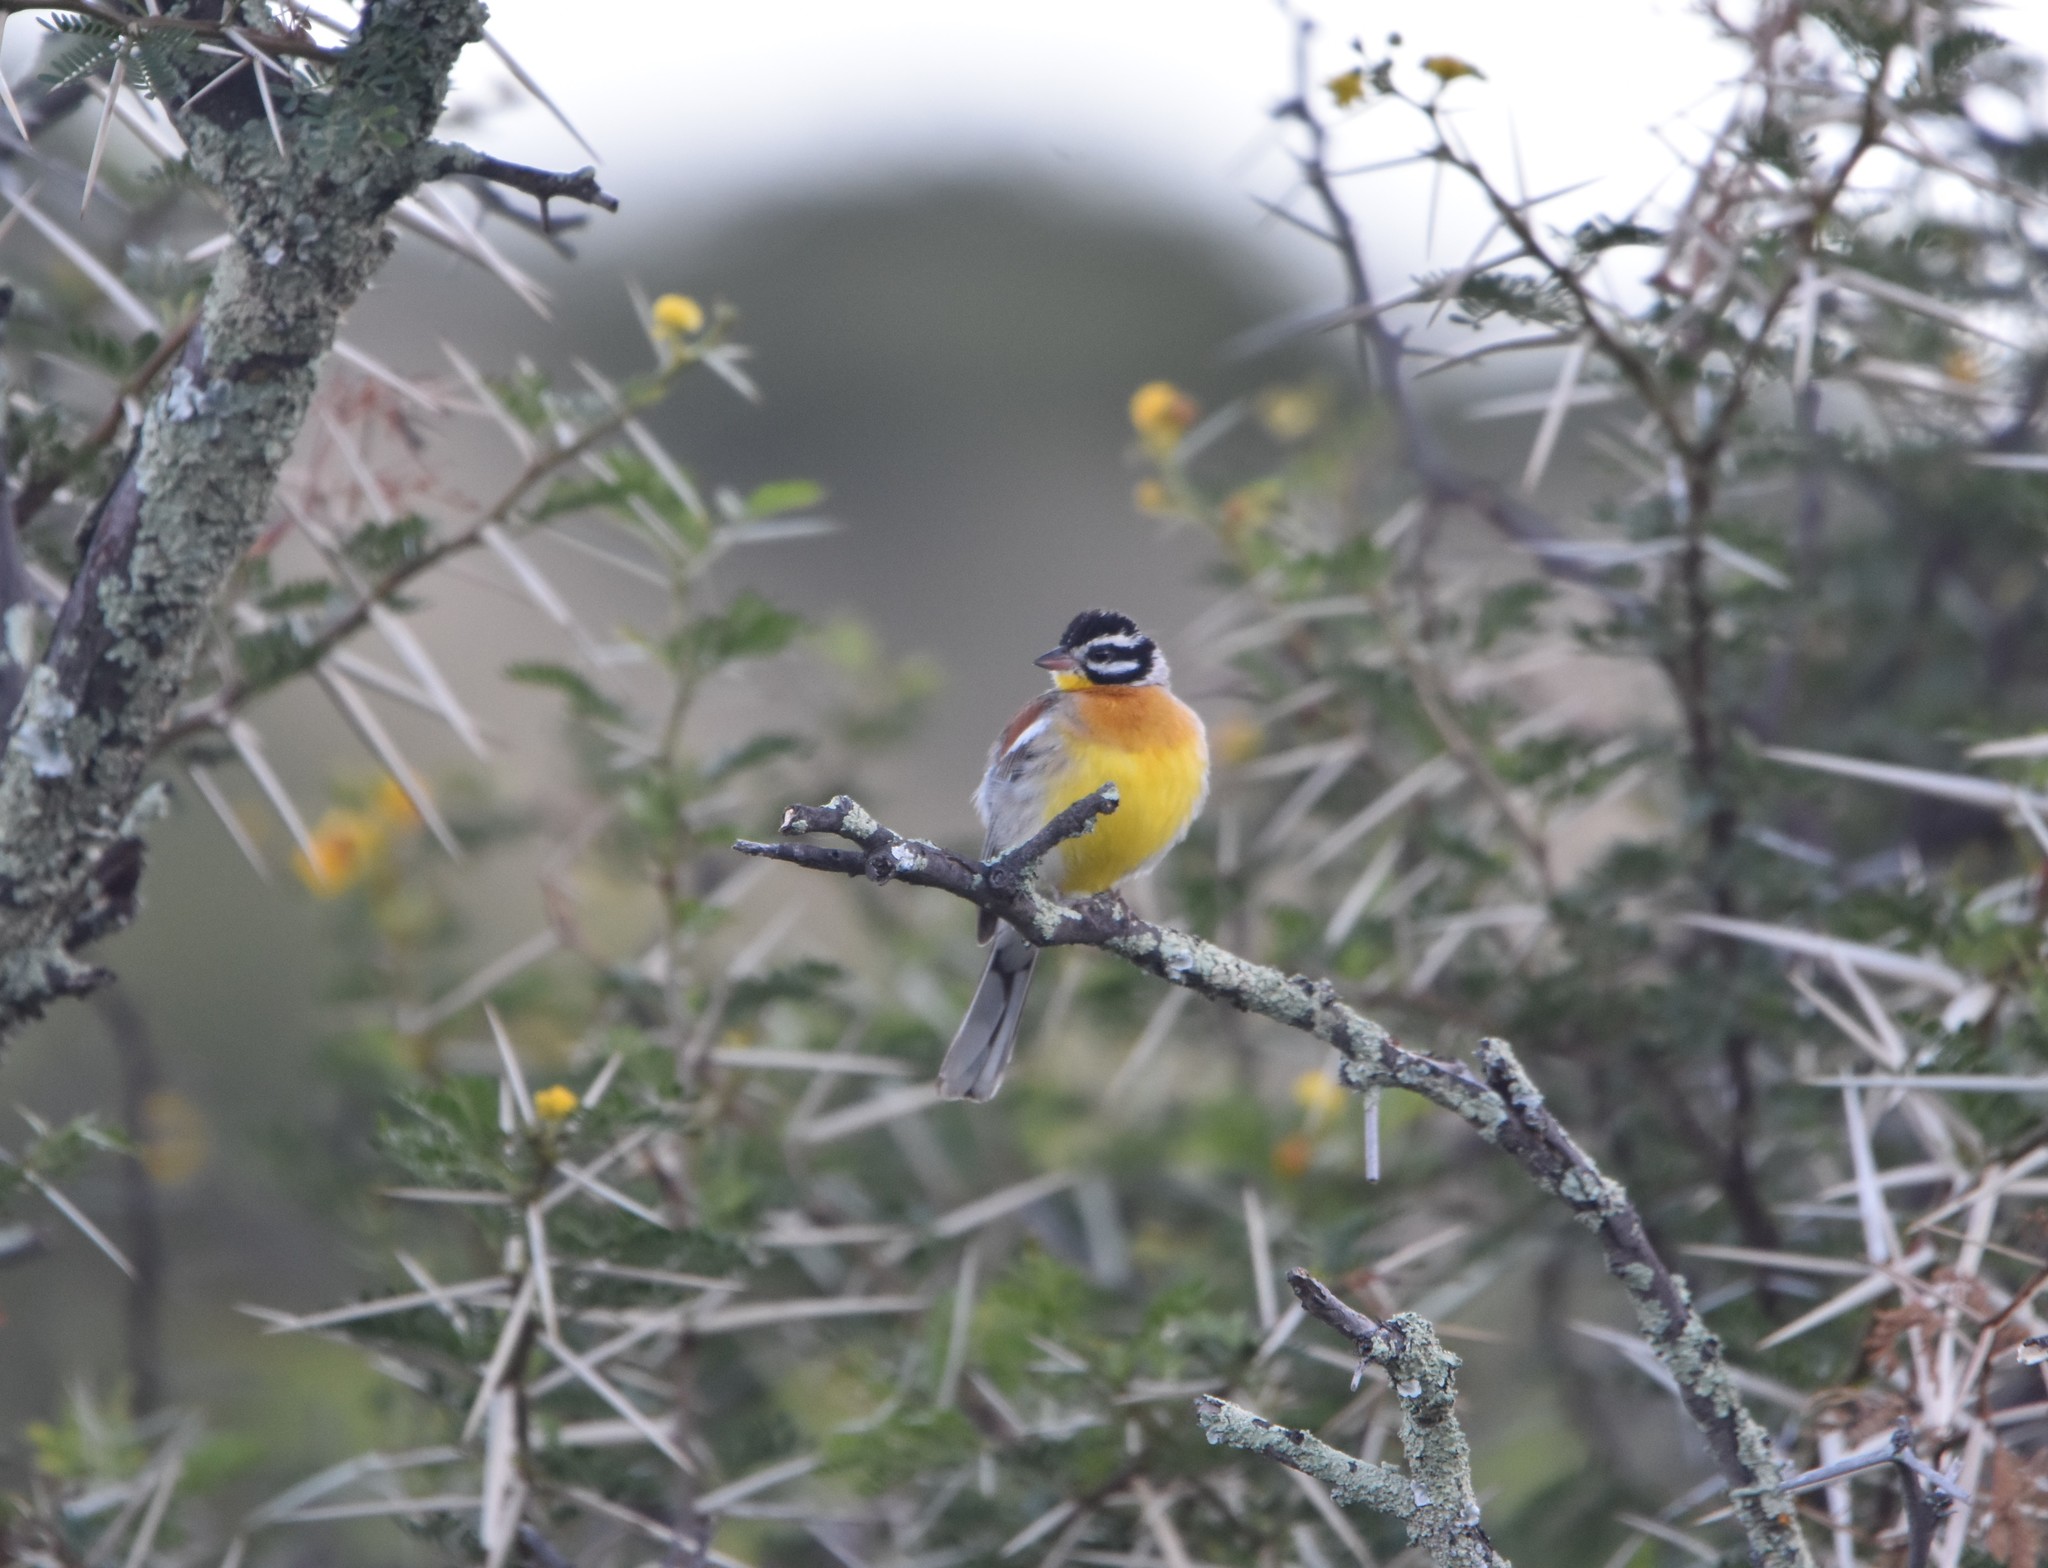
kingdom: Animalia
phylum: Chordata
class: Aves
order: Passeriformes
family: Emberizidae
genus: Emberiza
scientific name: Emberiza flaviventris
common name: Golden-breasted bunting
